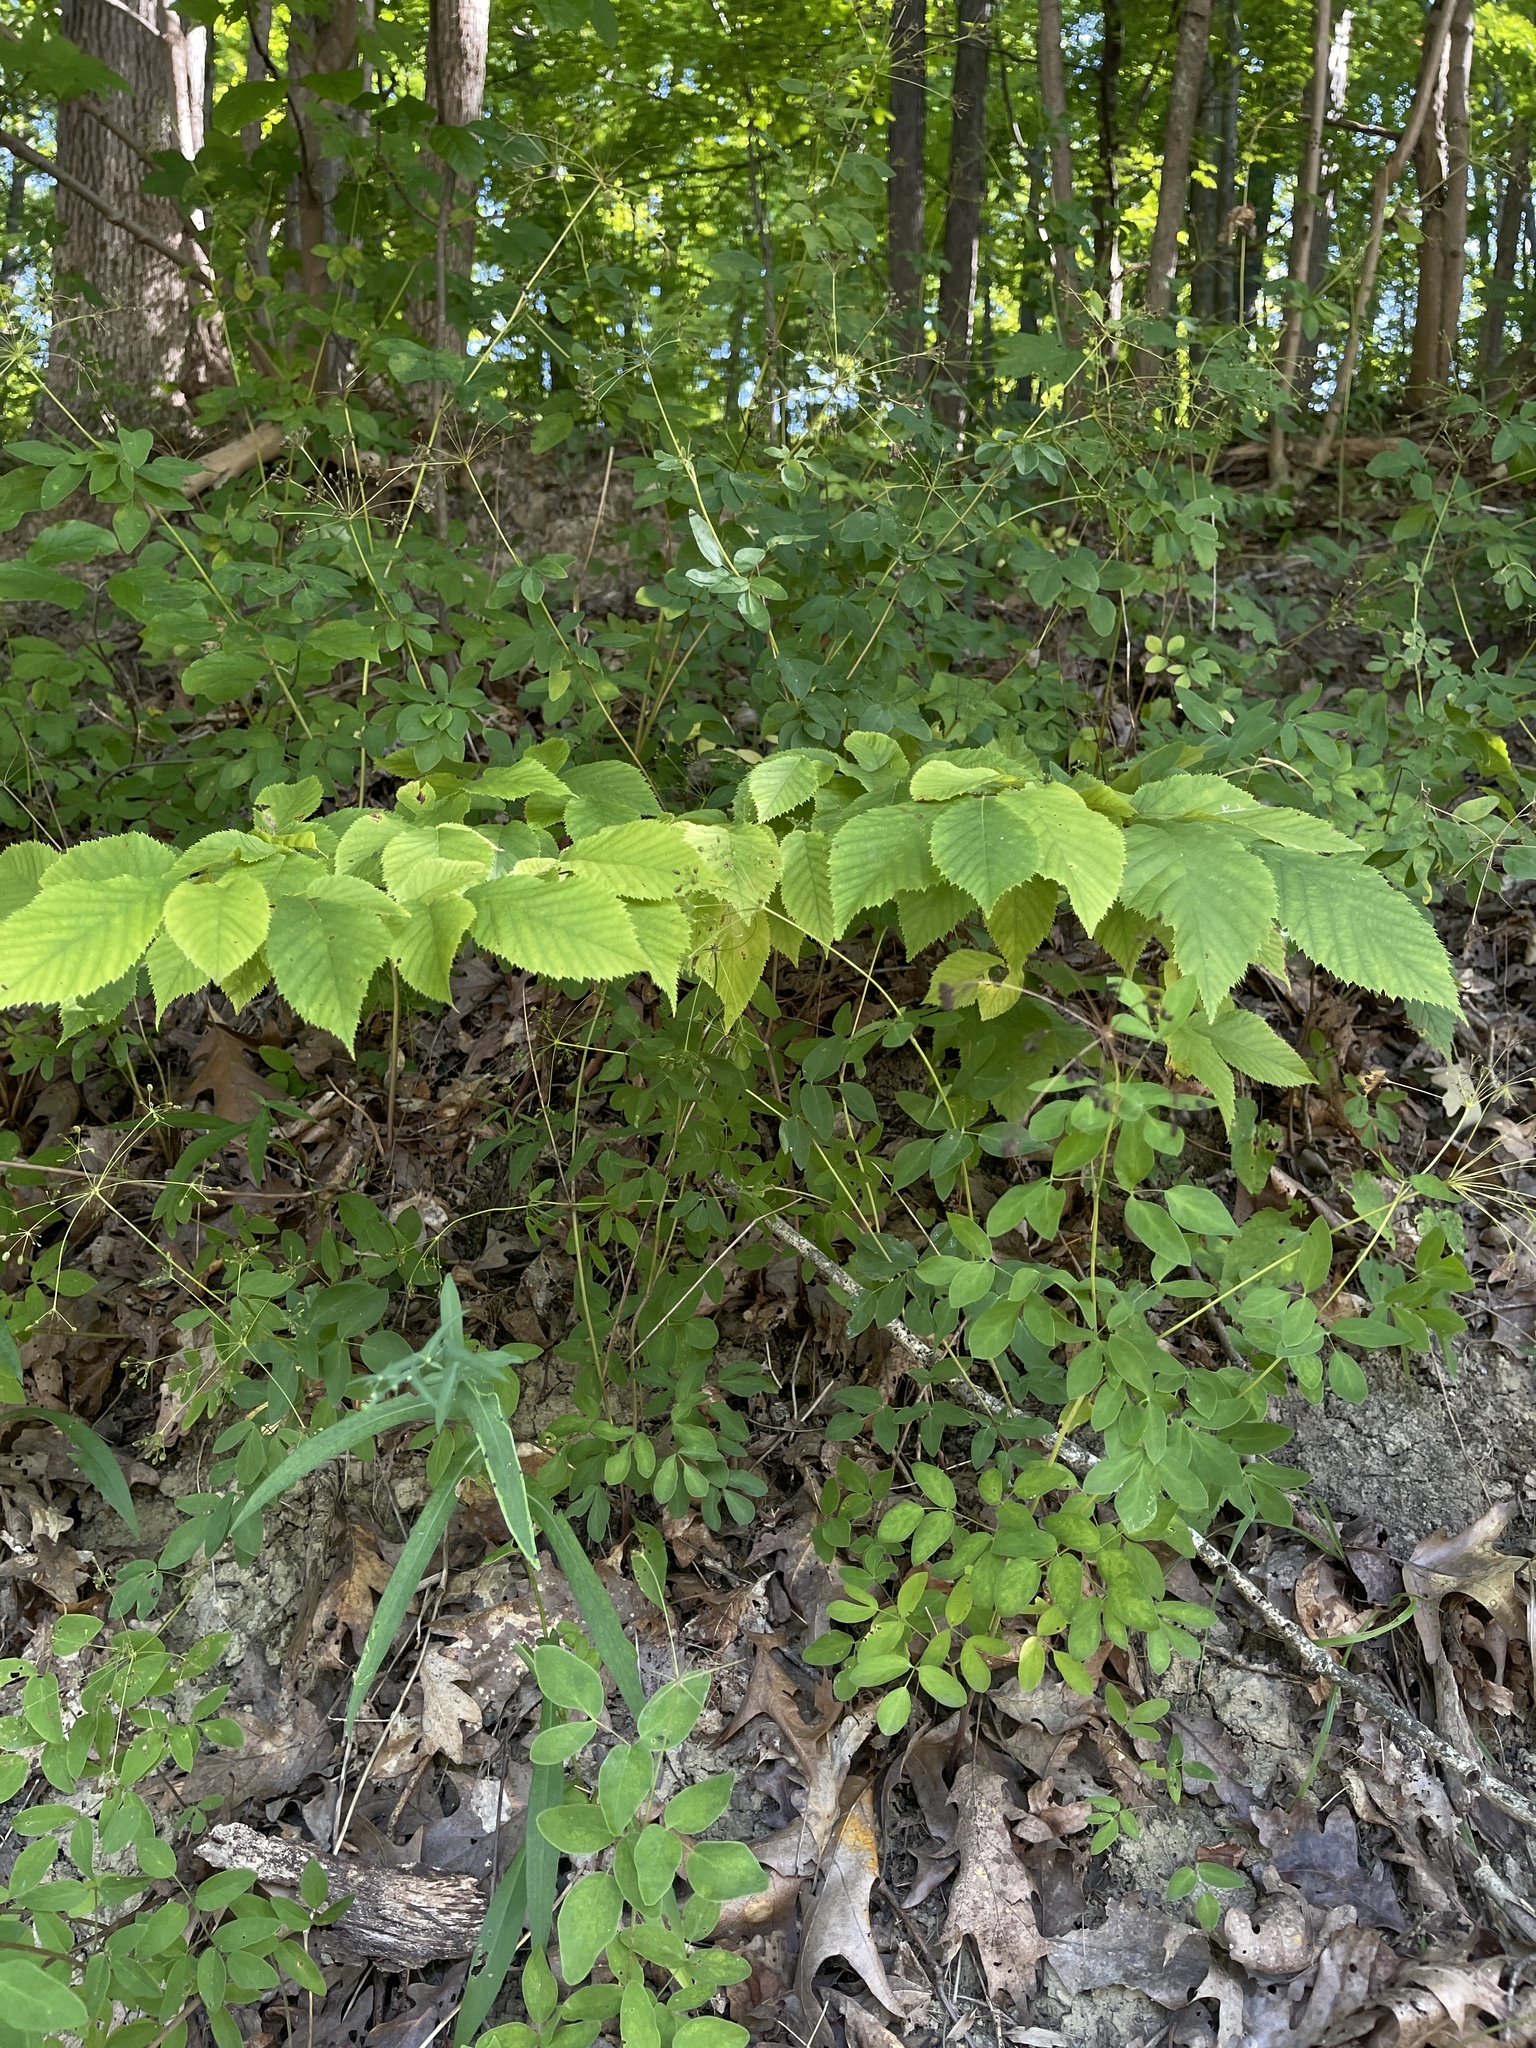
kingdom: Plantae
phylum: Tracheophyta
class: Magnoliopsida
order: Apiales
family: Apiaceae
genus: Taenidia
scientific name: Taenidia integerrima
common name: Golden alexander
